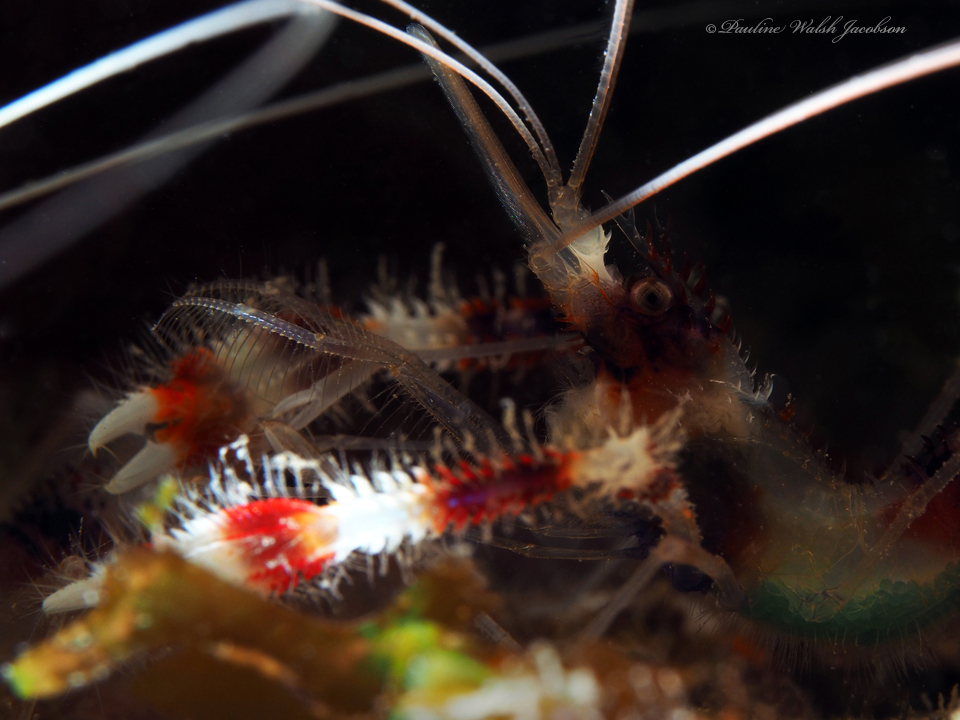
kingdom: Animalia
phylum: Arthropoda
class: Malacostraca
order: Decapoda
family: Stenopodidae
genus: Stenopus
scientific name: Stenopus hispidus
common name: Banded coral shrimp
